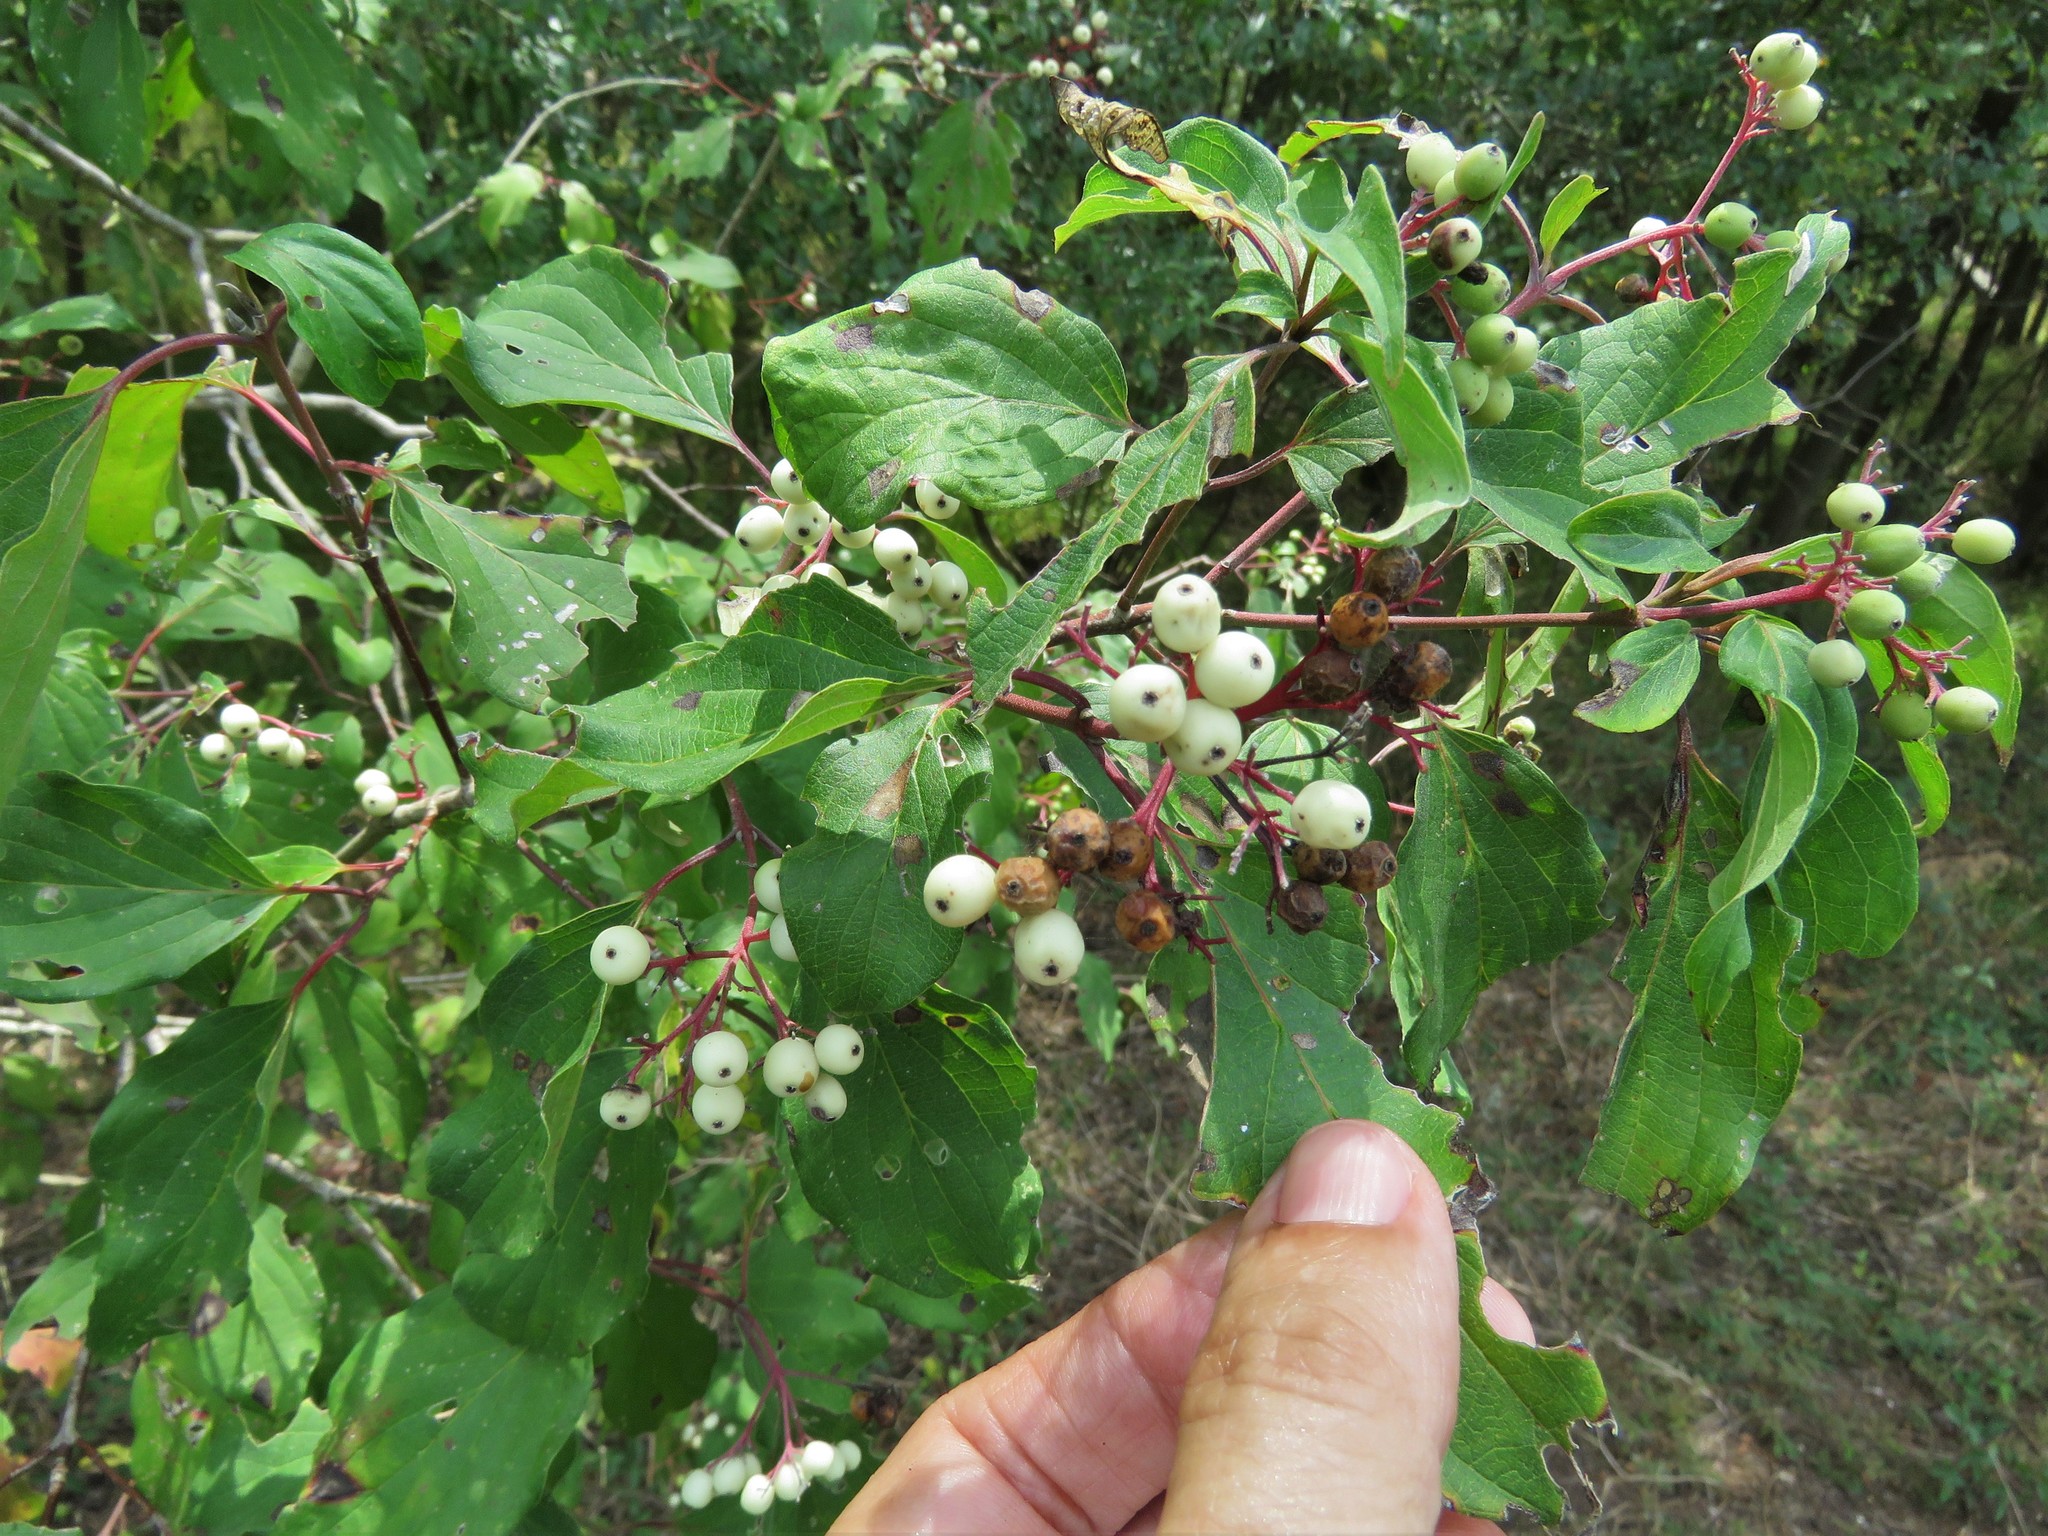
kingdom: Plantae
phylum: Tracheophyta
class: Magnoliopsida
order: Cornales
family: Cornaceae
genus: Cornus
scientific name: Cornus drummondii
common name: Rough-leaf dogwood
